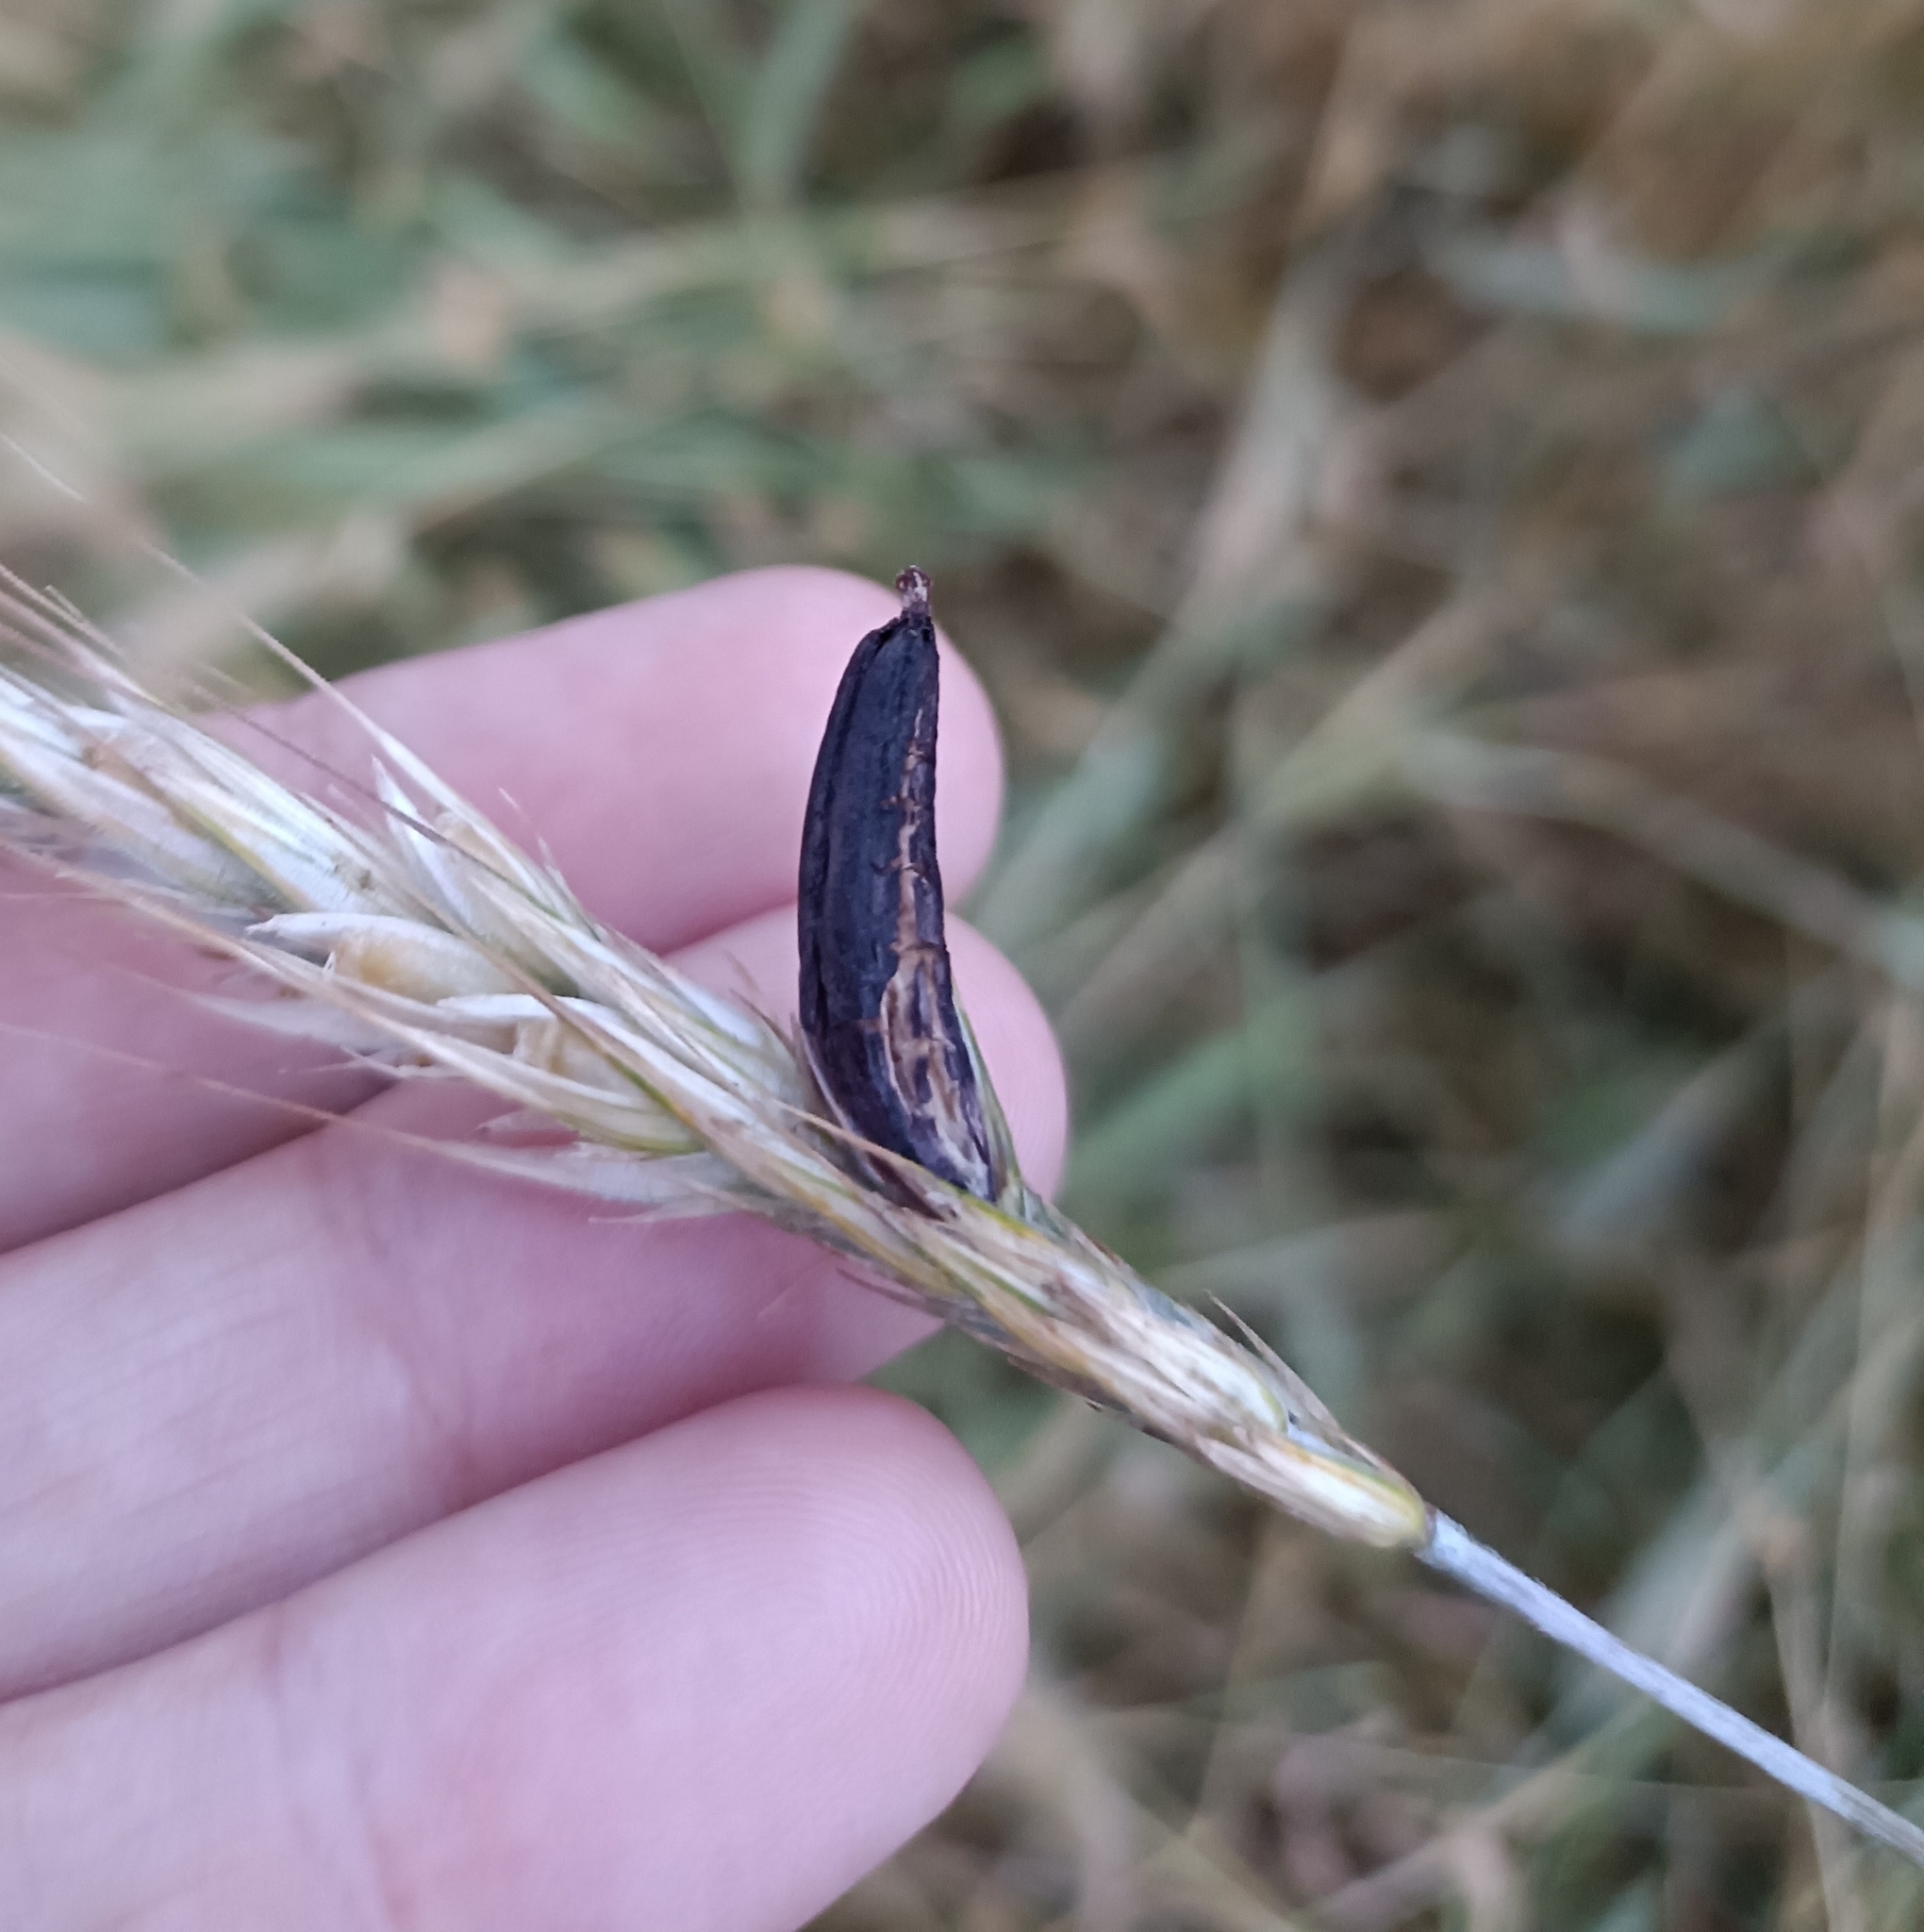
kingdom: Fungi
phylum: Ascomycota
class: Sordariomycetes
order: Hypocreales
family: Clavicipitaceae
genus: Claviceps
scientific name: Claviceps purpurea
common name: Rye ergot
